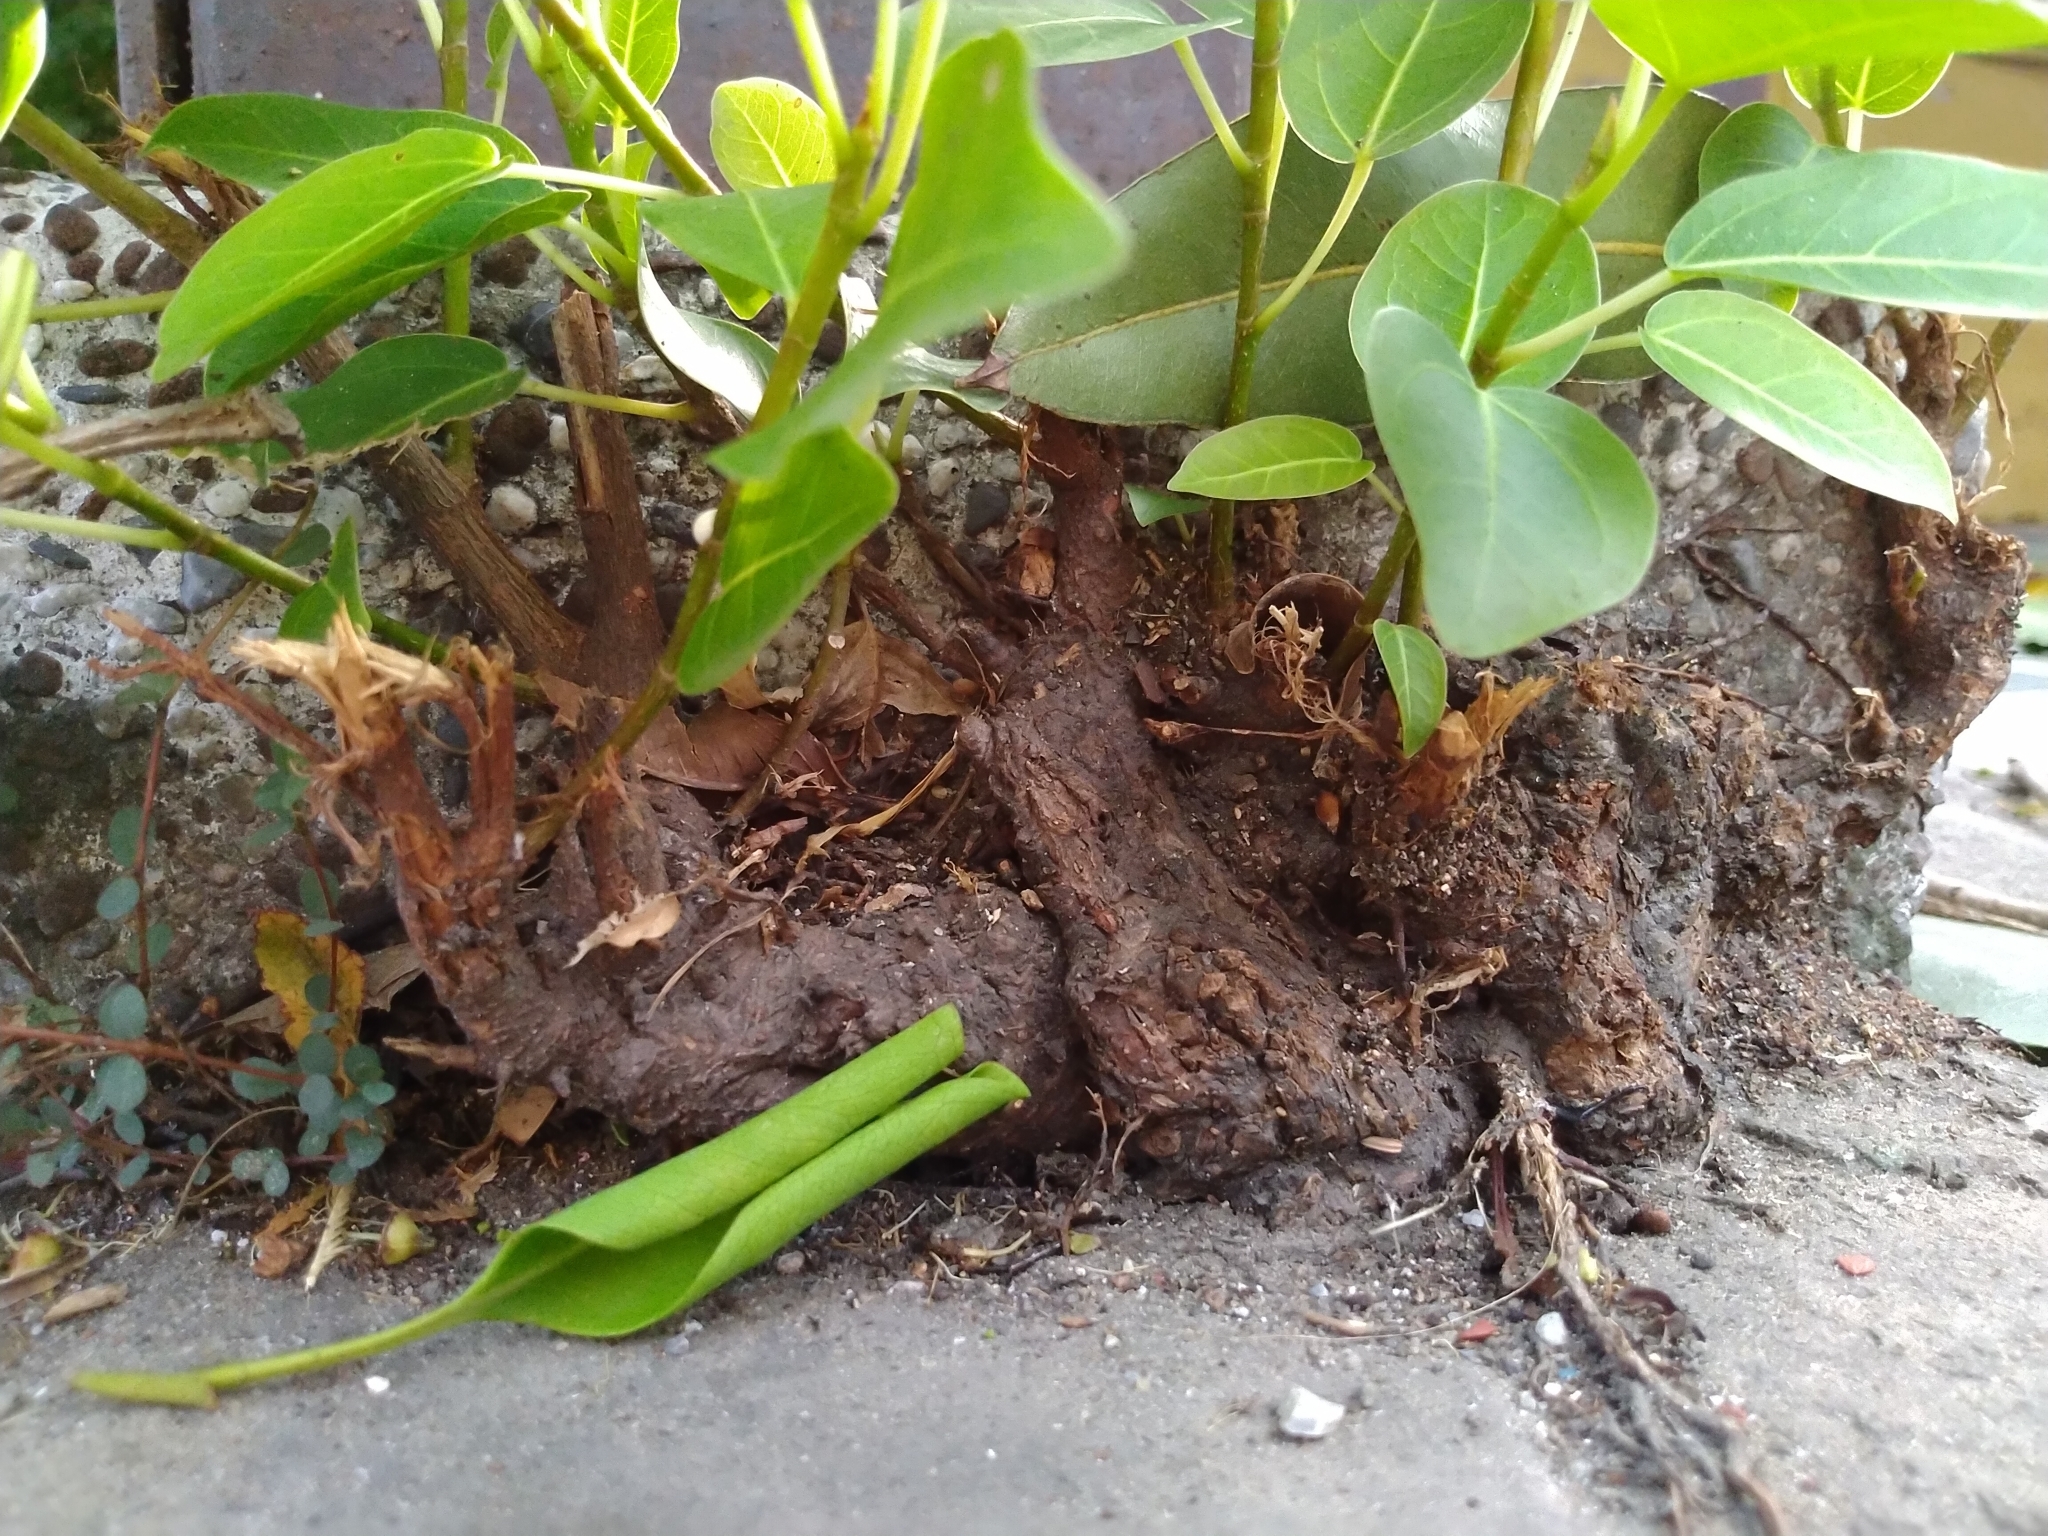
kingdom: Plantae
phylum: Tracheophyta
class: Magnoliopsida
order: Rosales
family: Moraceae
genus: Ficus
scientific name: Ficus subpisocarpa
